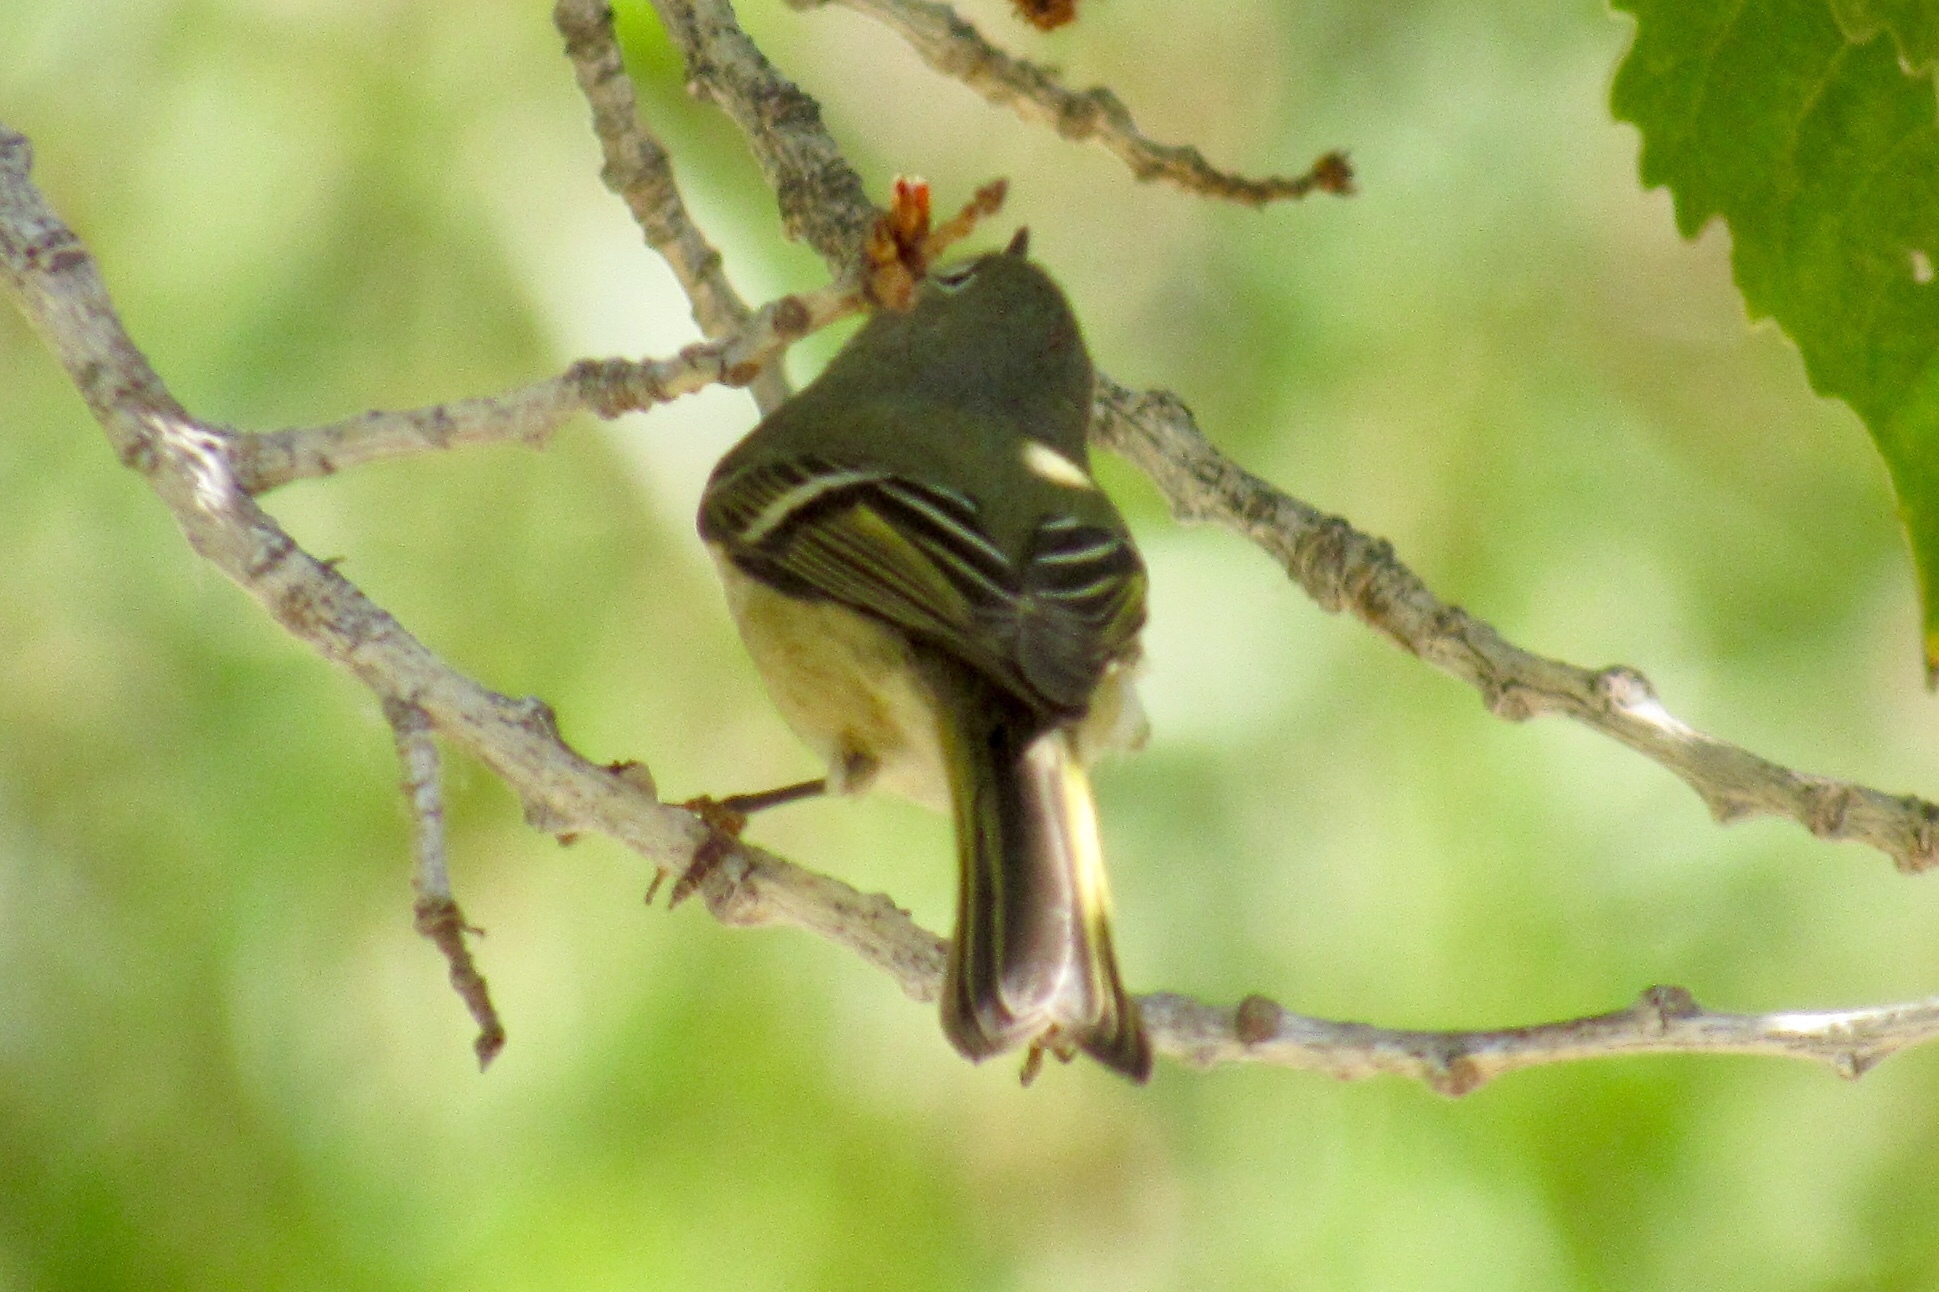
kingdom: Animalia
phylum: Chordata
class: Aves
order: Passeriformes
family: Regulidae
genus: Regulus
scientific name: Regulus calendula
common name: Ruby-crowned kinglet
